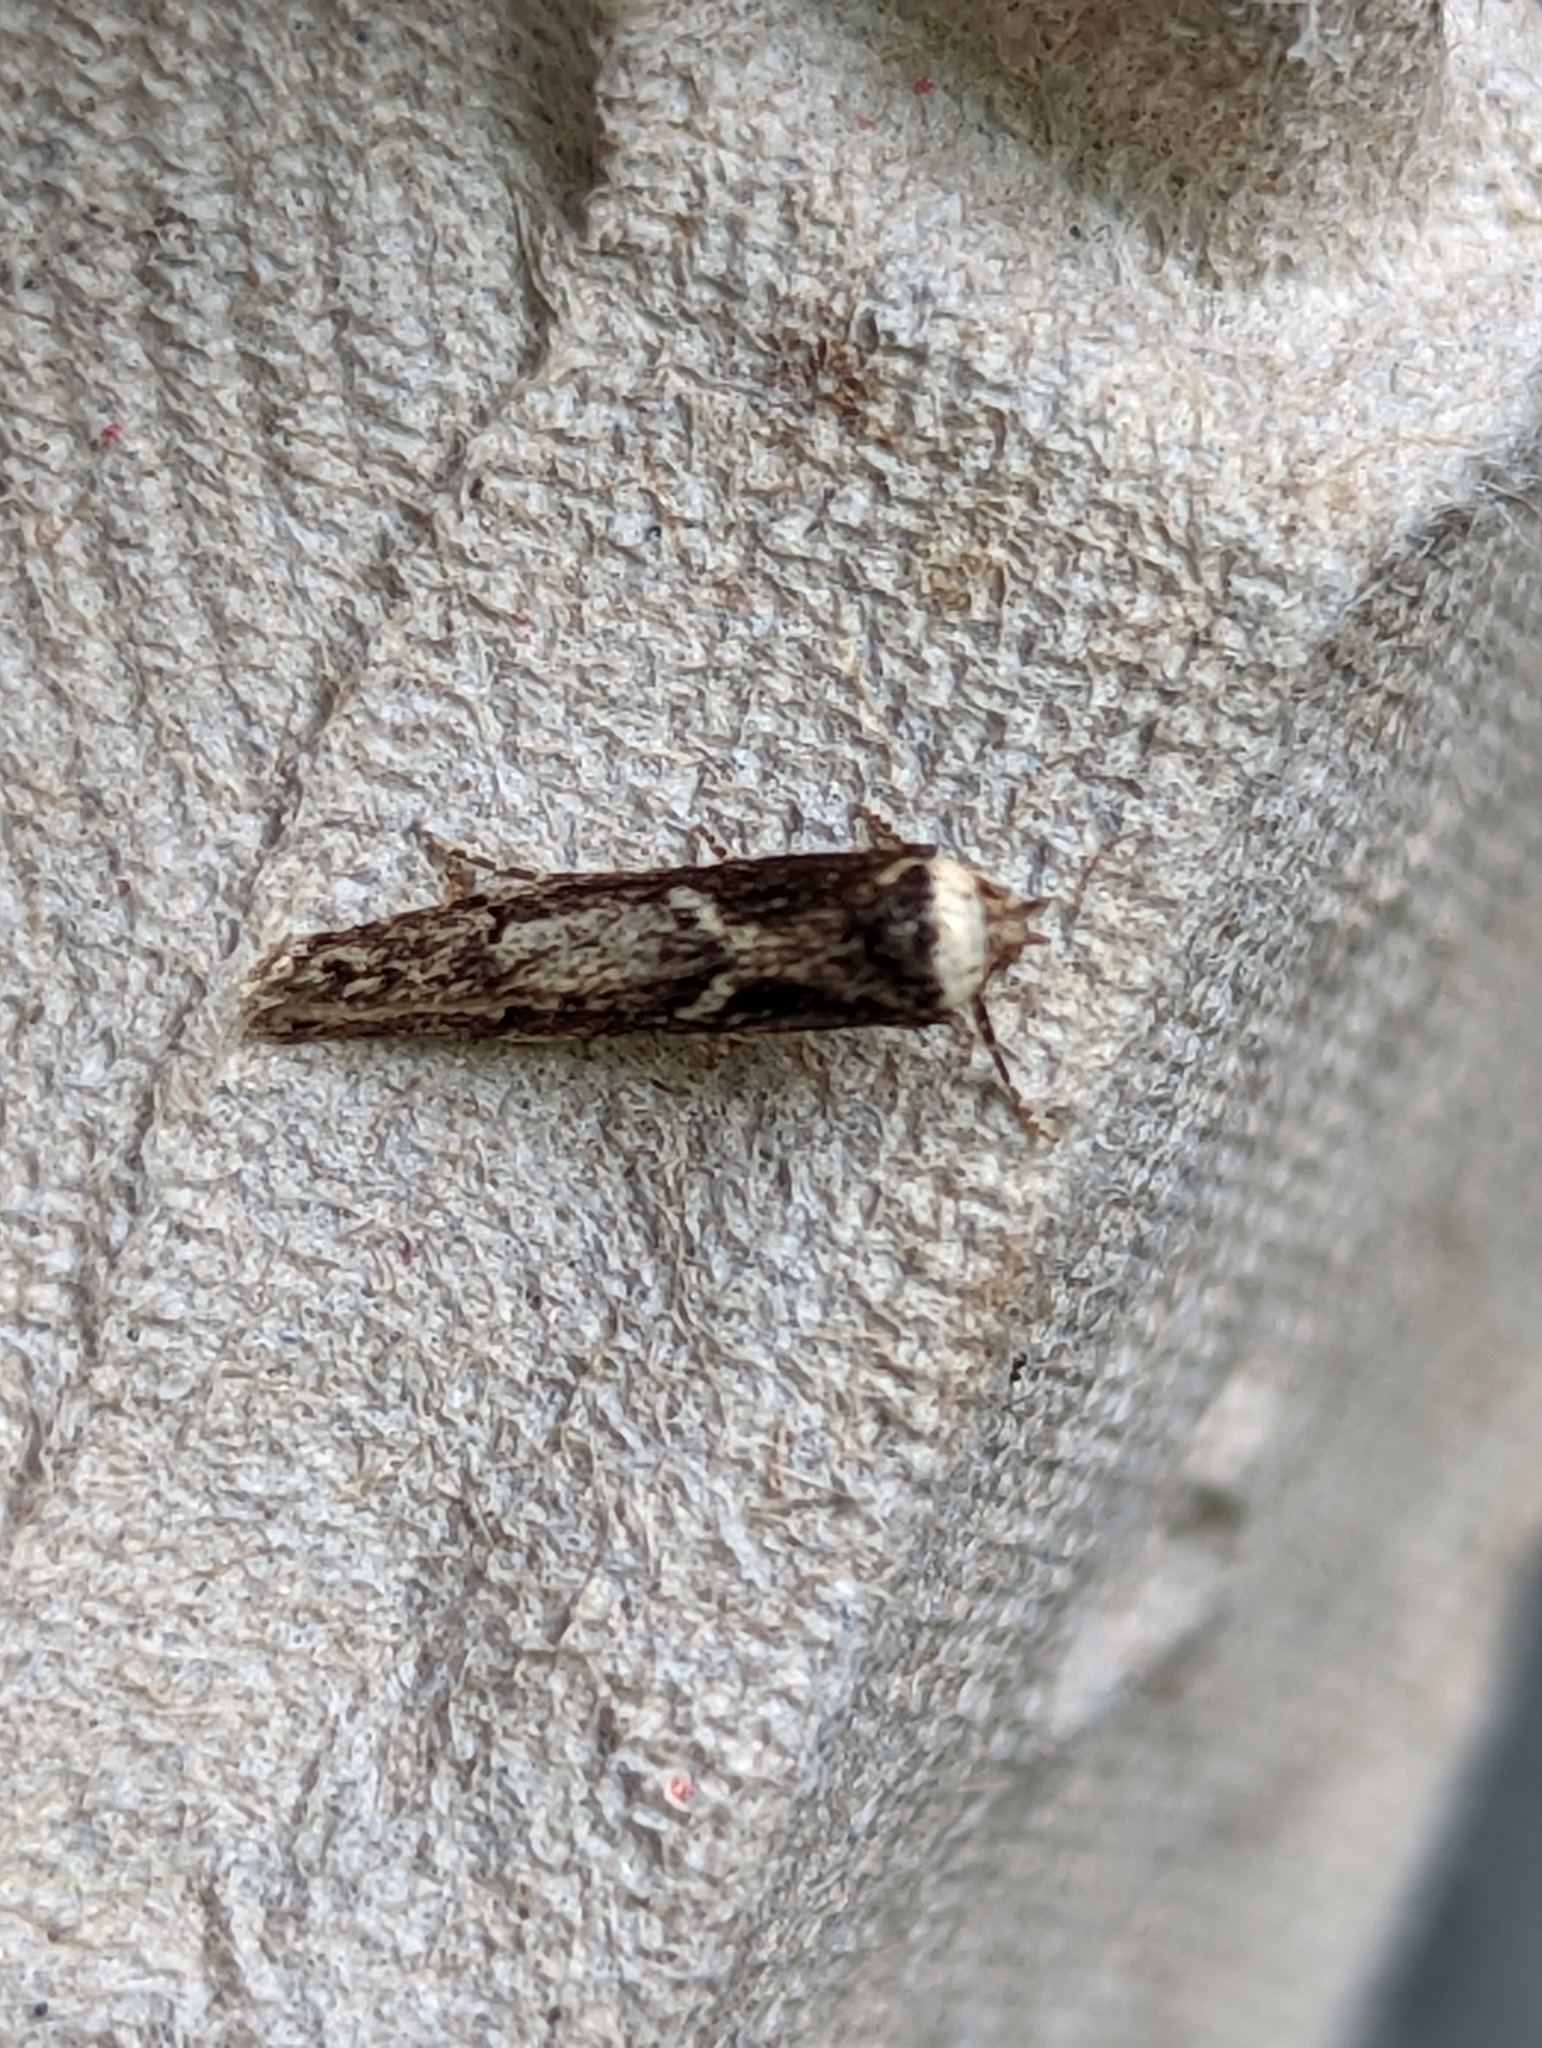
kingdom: Animalia
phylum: Arthropoda
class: Insecta
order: Lepidoptera
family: Blastobasidae
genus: Blastobasis
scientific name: Blastobasis adustella
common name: Dingy dowd
